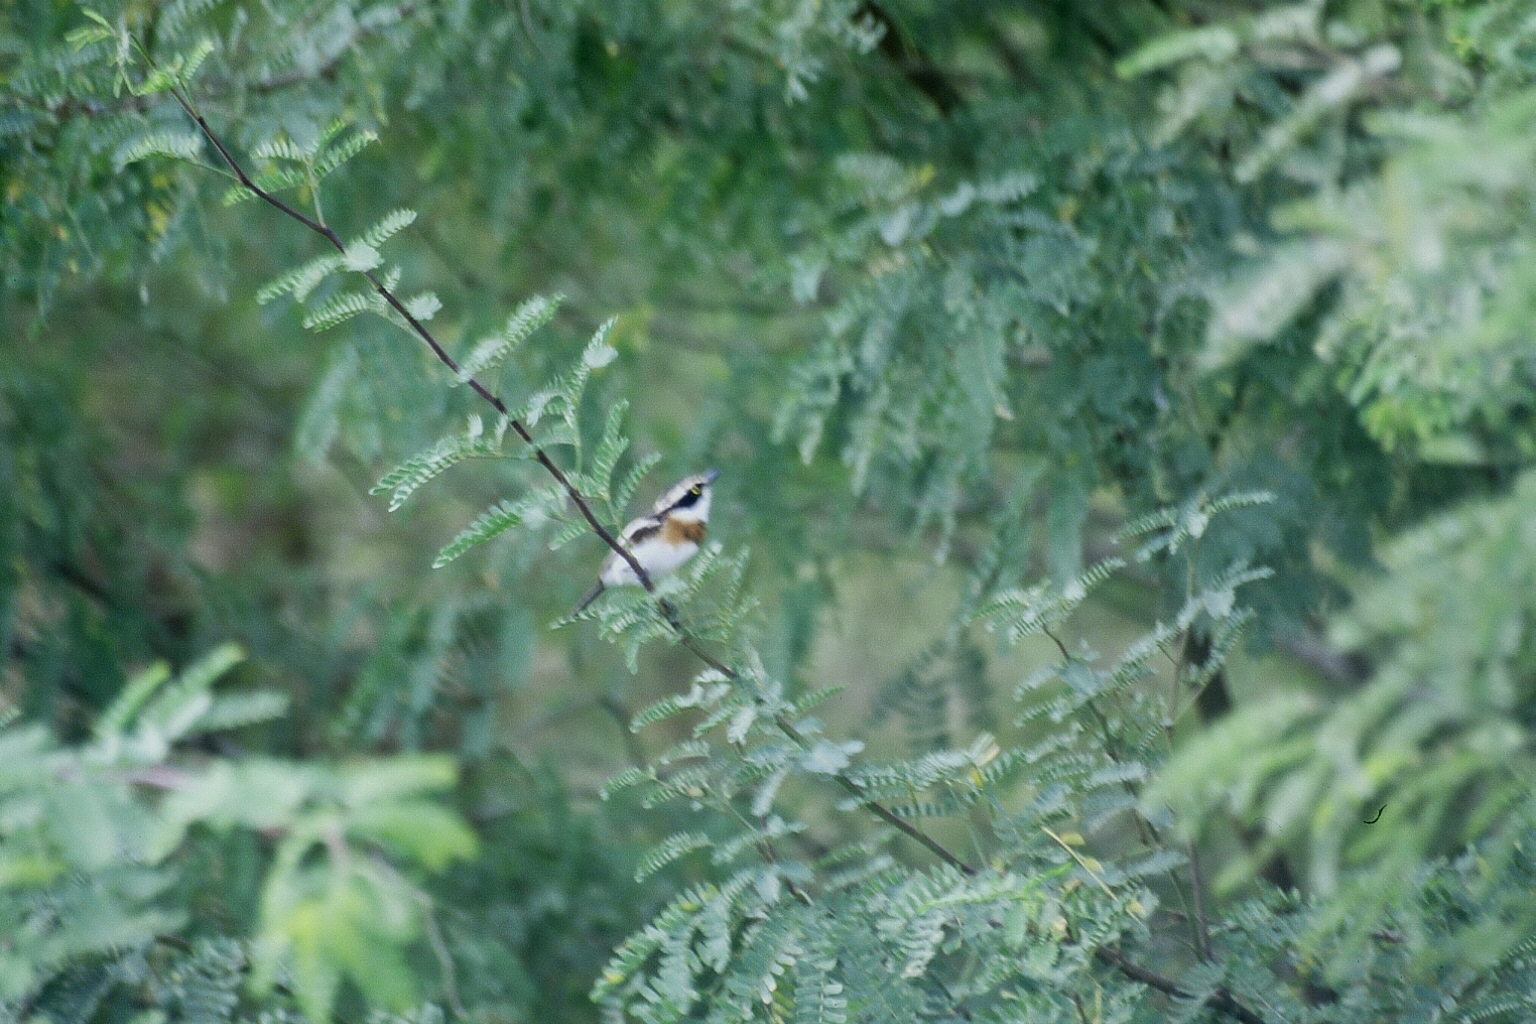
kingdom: Animalia
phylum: Chordata
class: Aves
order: Passeriformes
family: Platysteiridae
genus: Batis
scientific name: Batis senegalensis
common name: Senegal batis
